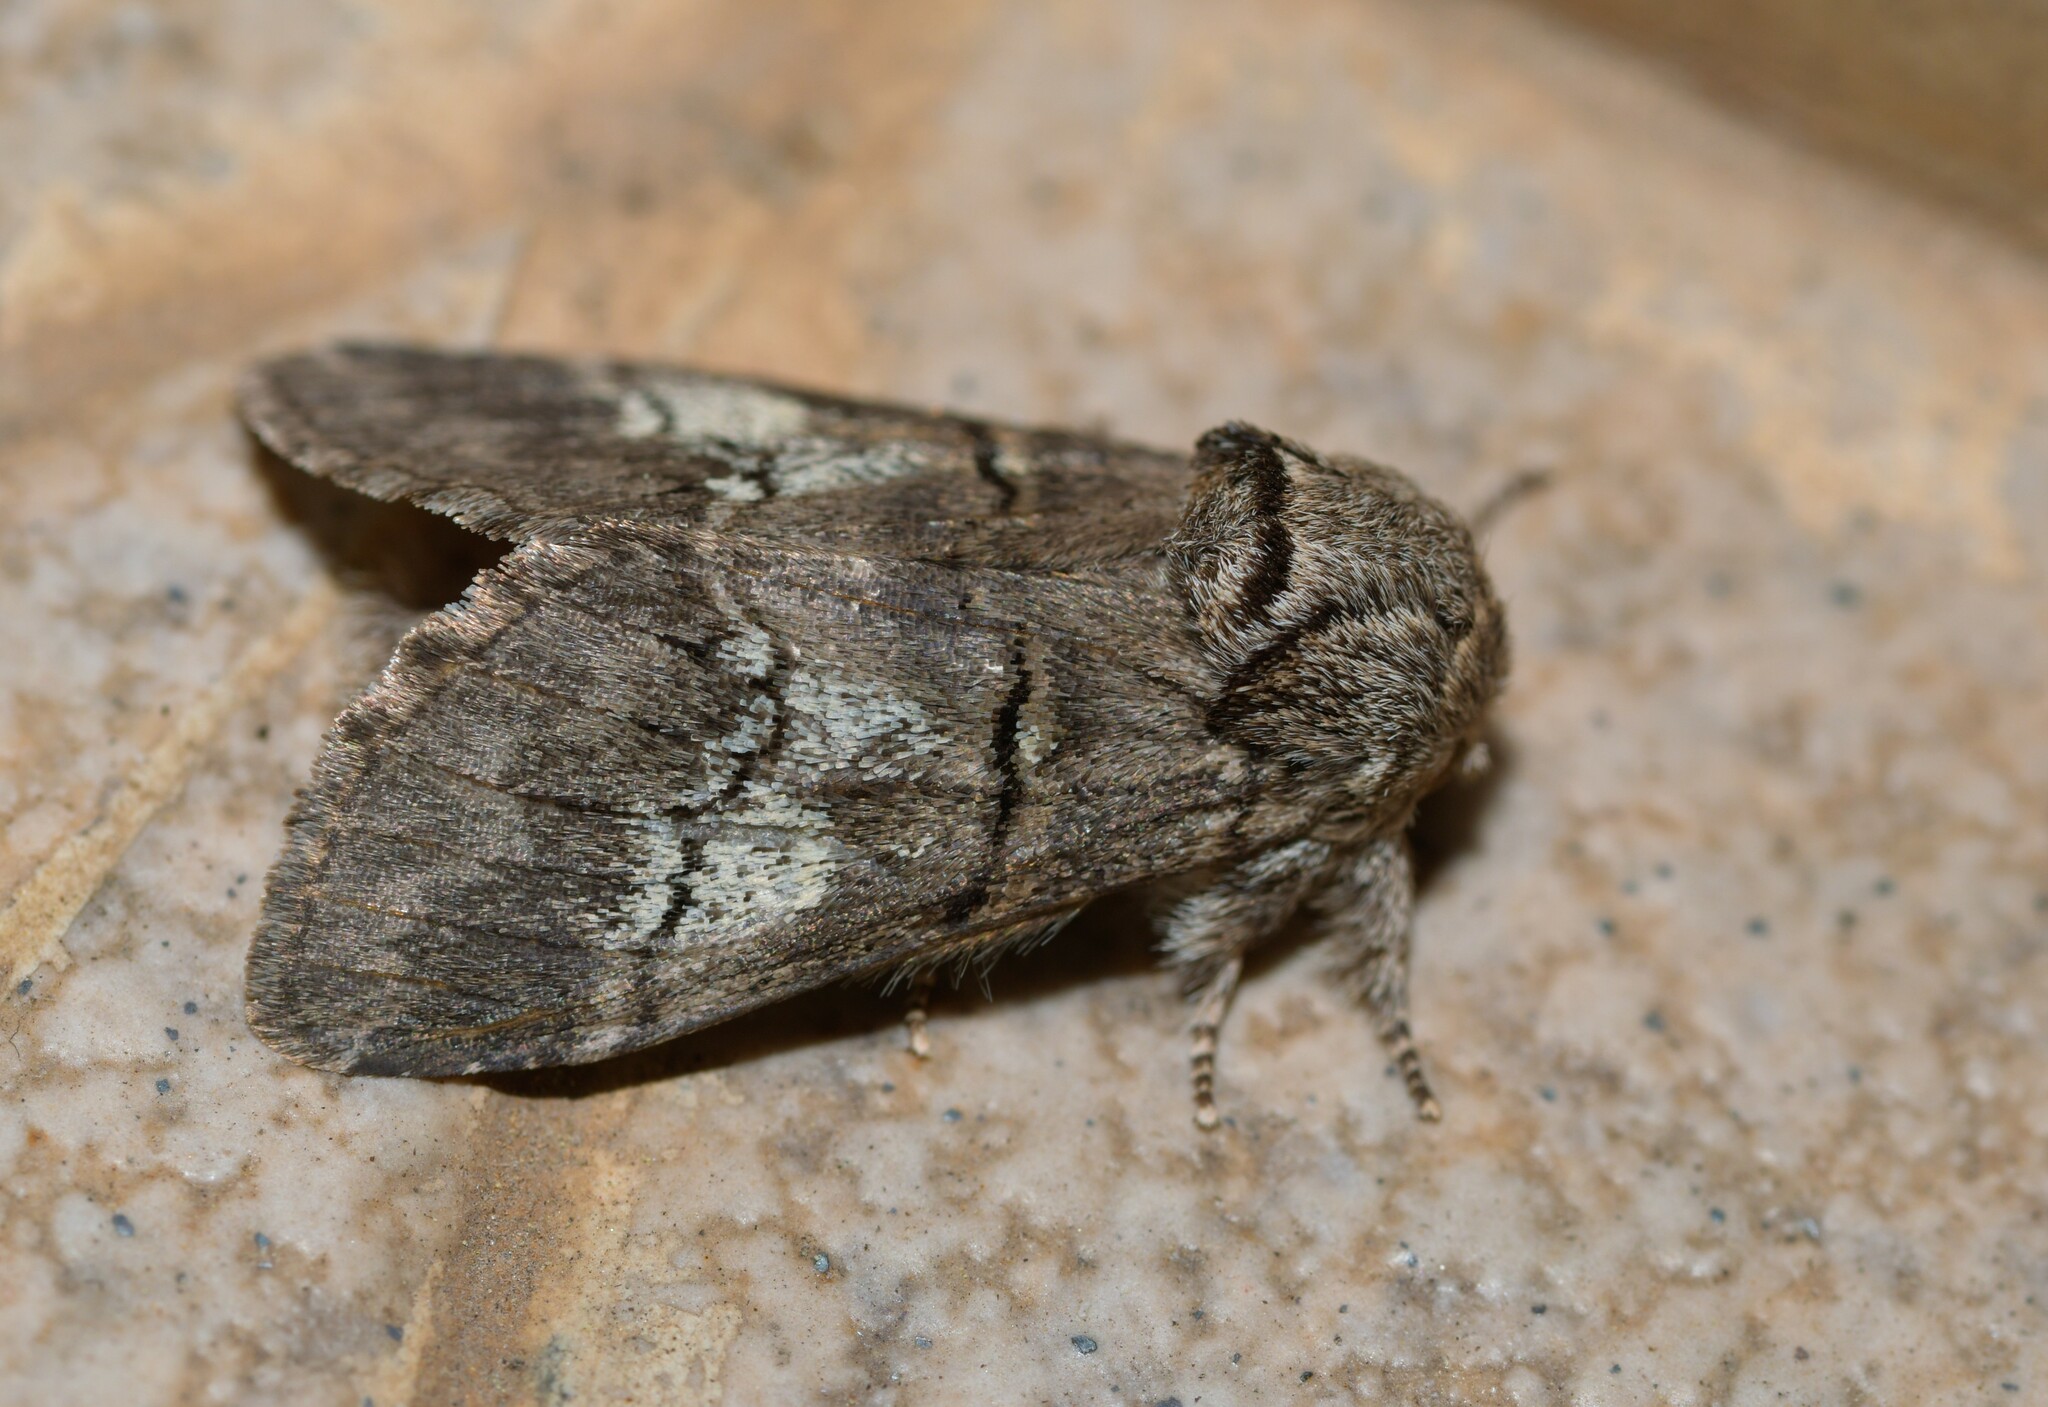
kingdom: Animalia
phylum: Arthropoda
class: Insecta
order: Lepidoptera
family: Notodontidae
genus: Drymonia
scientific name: Drymonia querna
